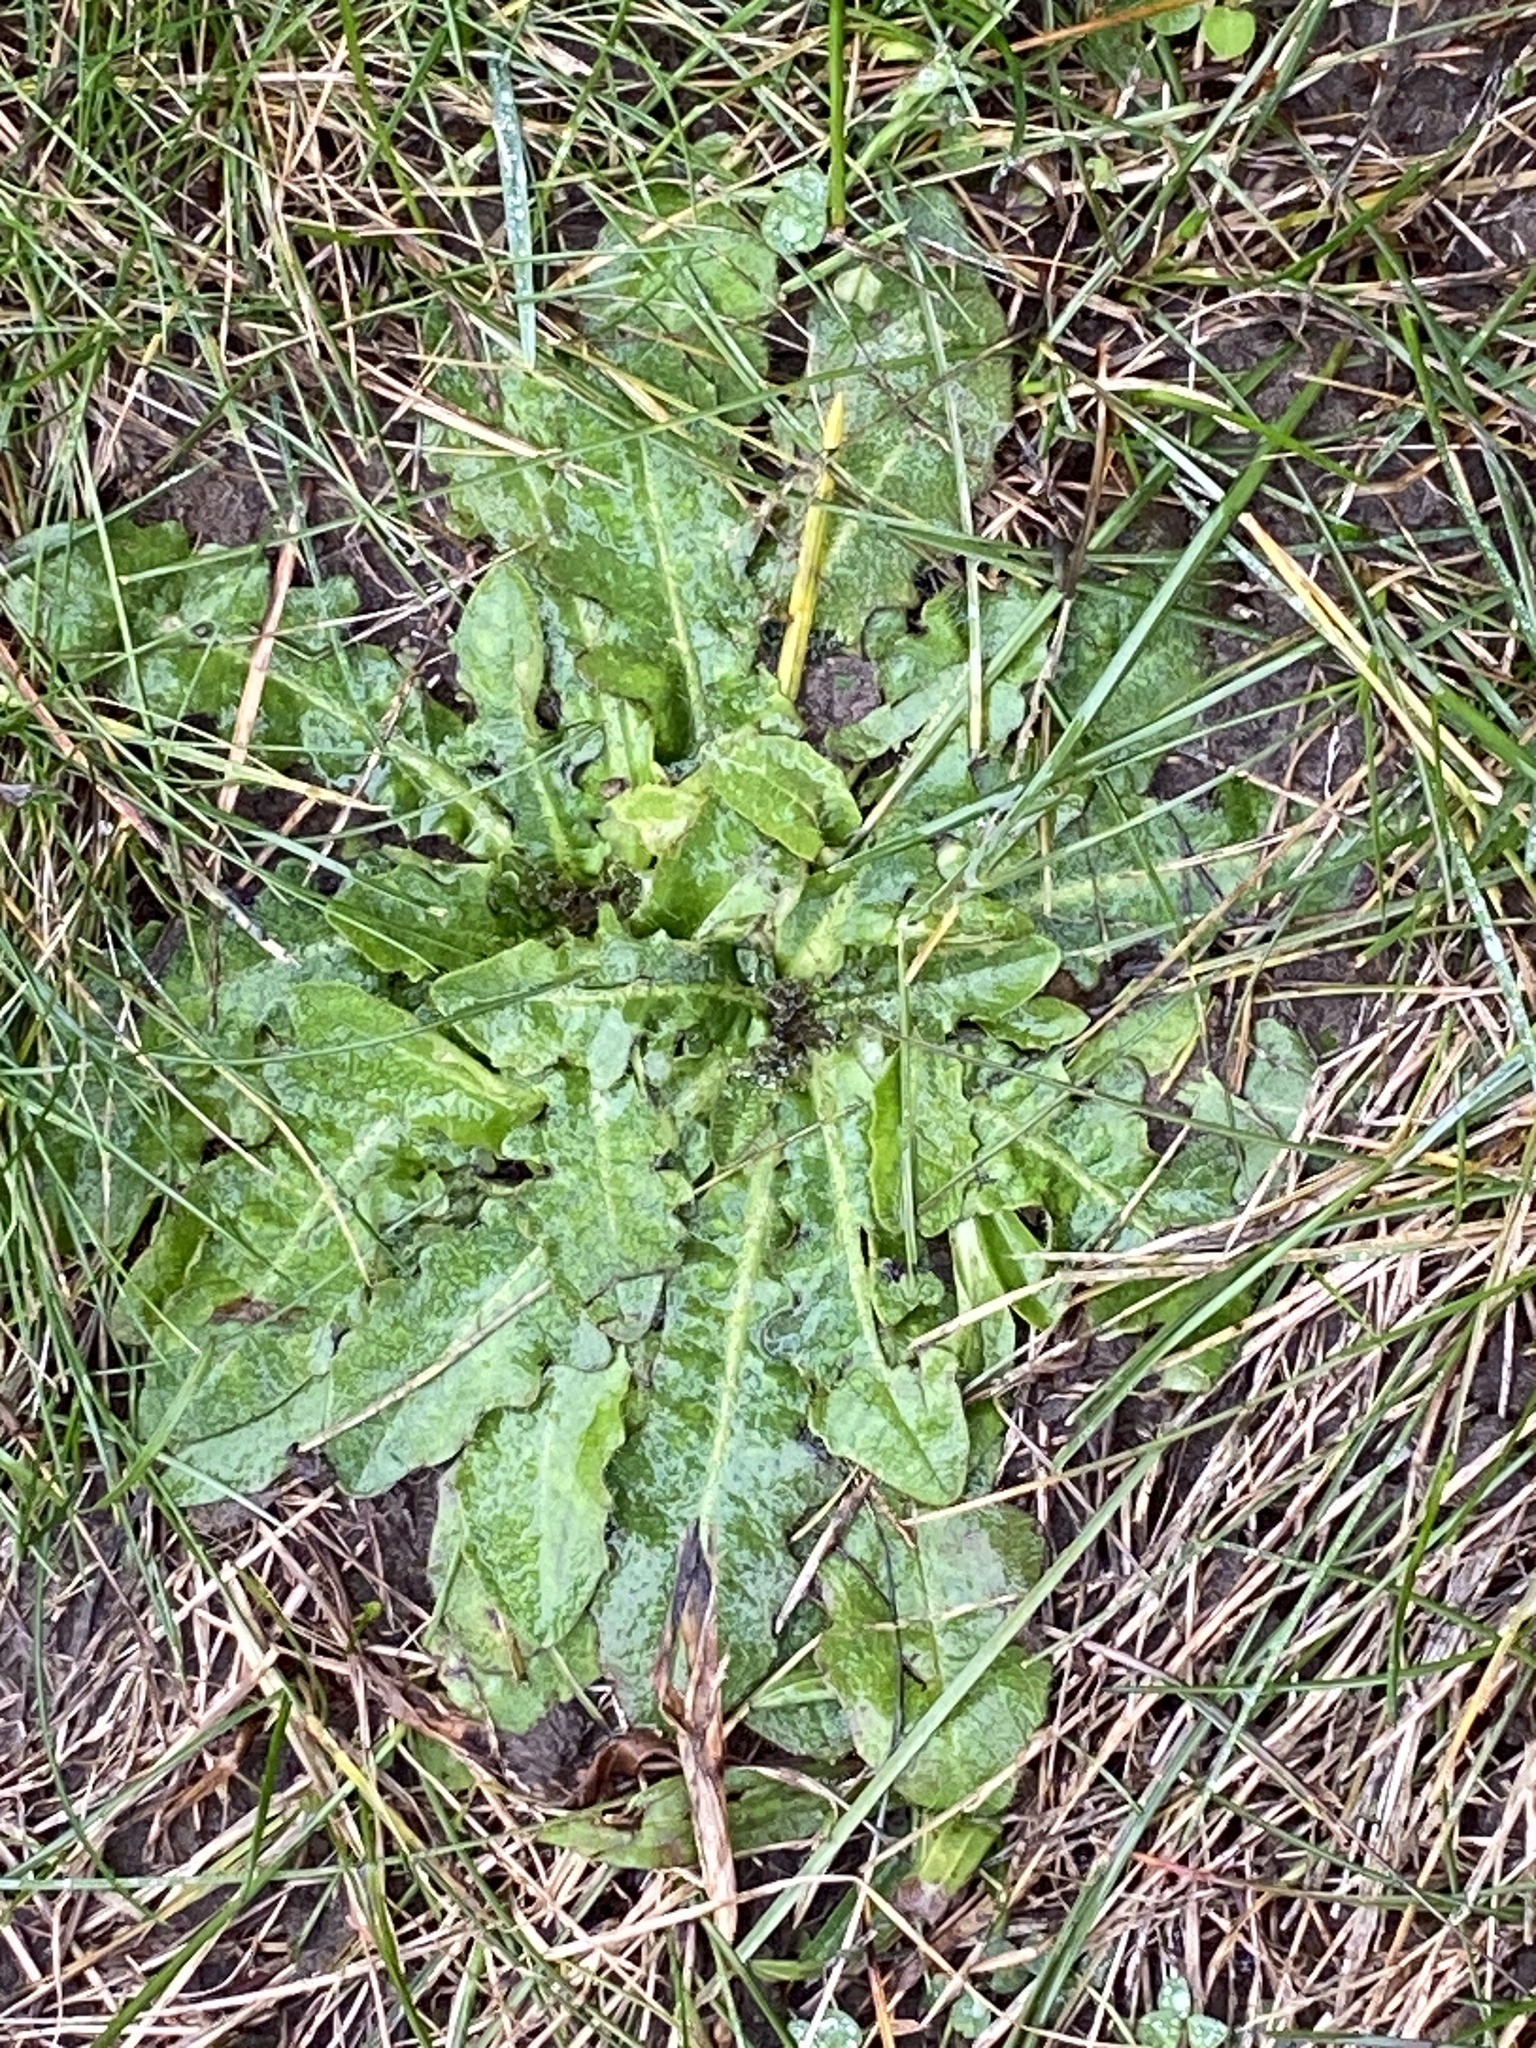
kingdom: Plantae
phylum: Tracheophyta
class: Magnoliopsida
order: Asterales
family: Asteraceae
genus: Hypochaeris
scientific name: Hypochaeris radicata
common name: Flatweed
